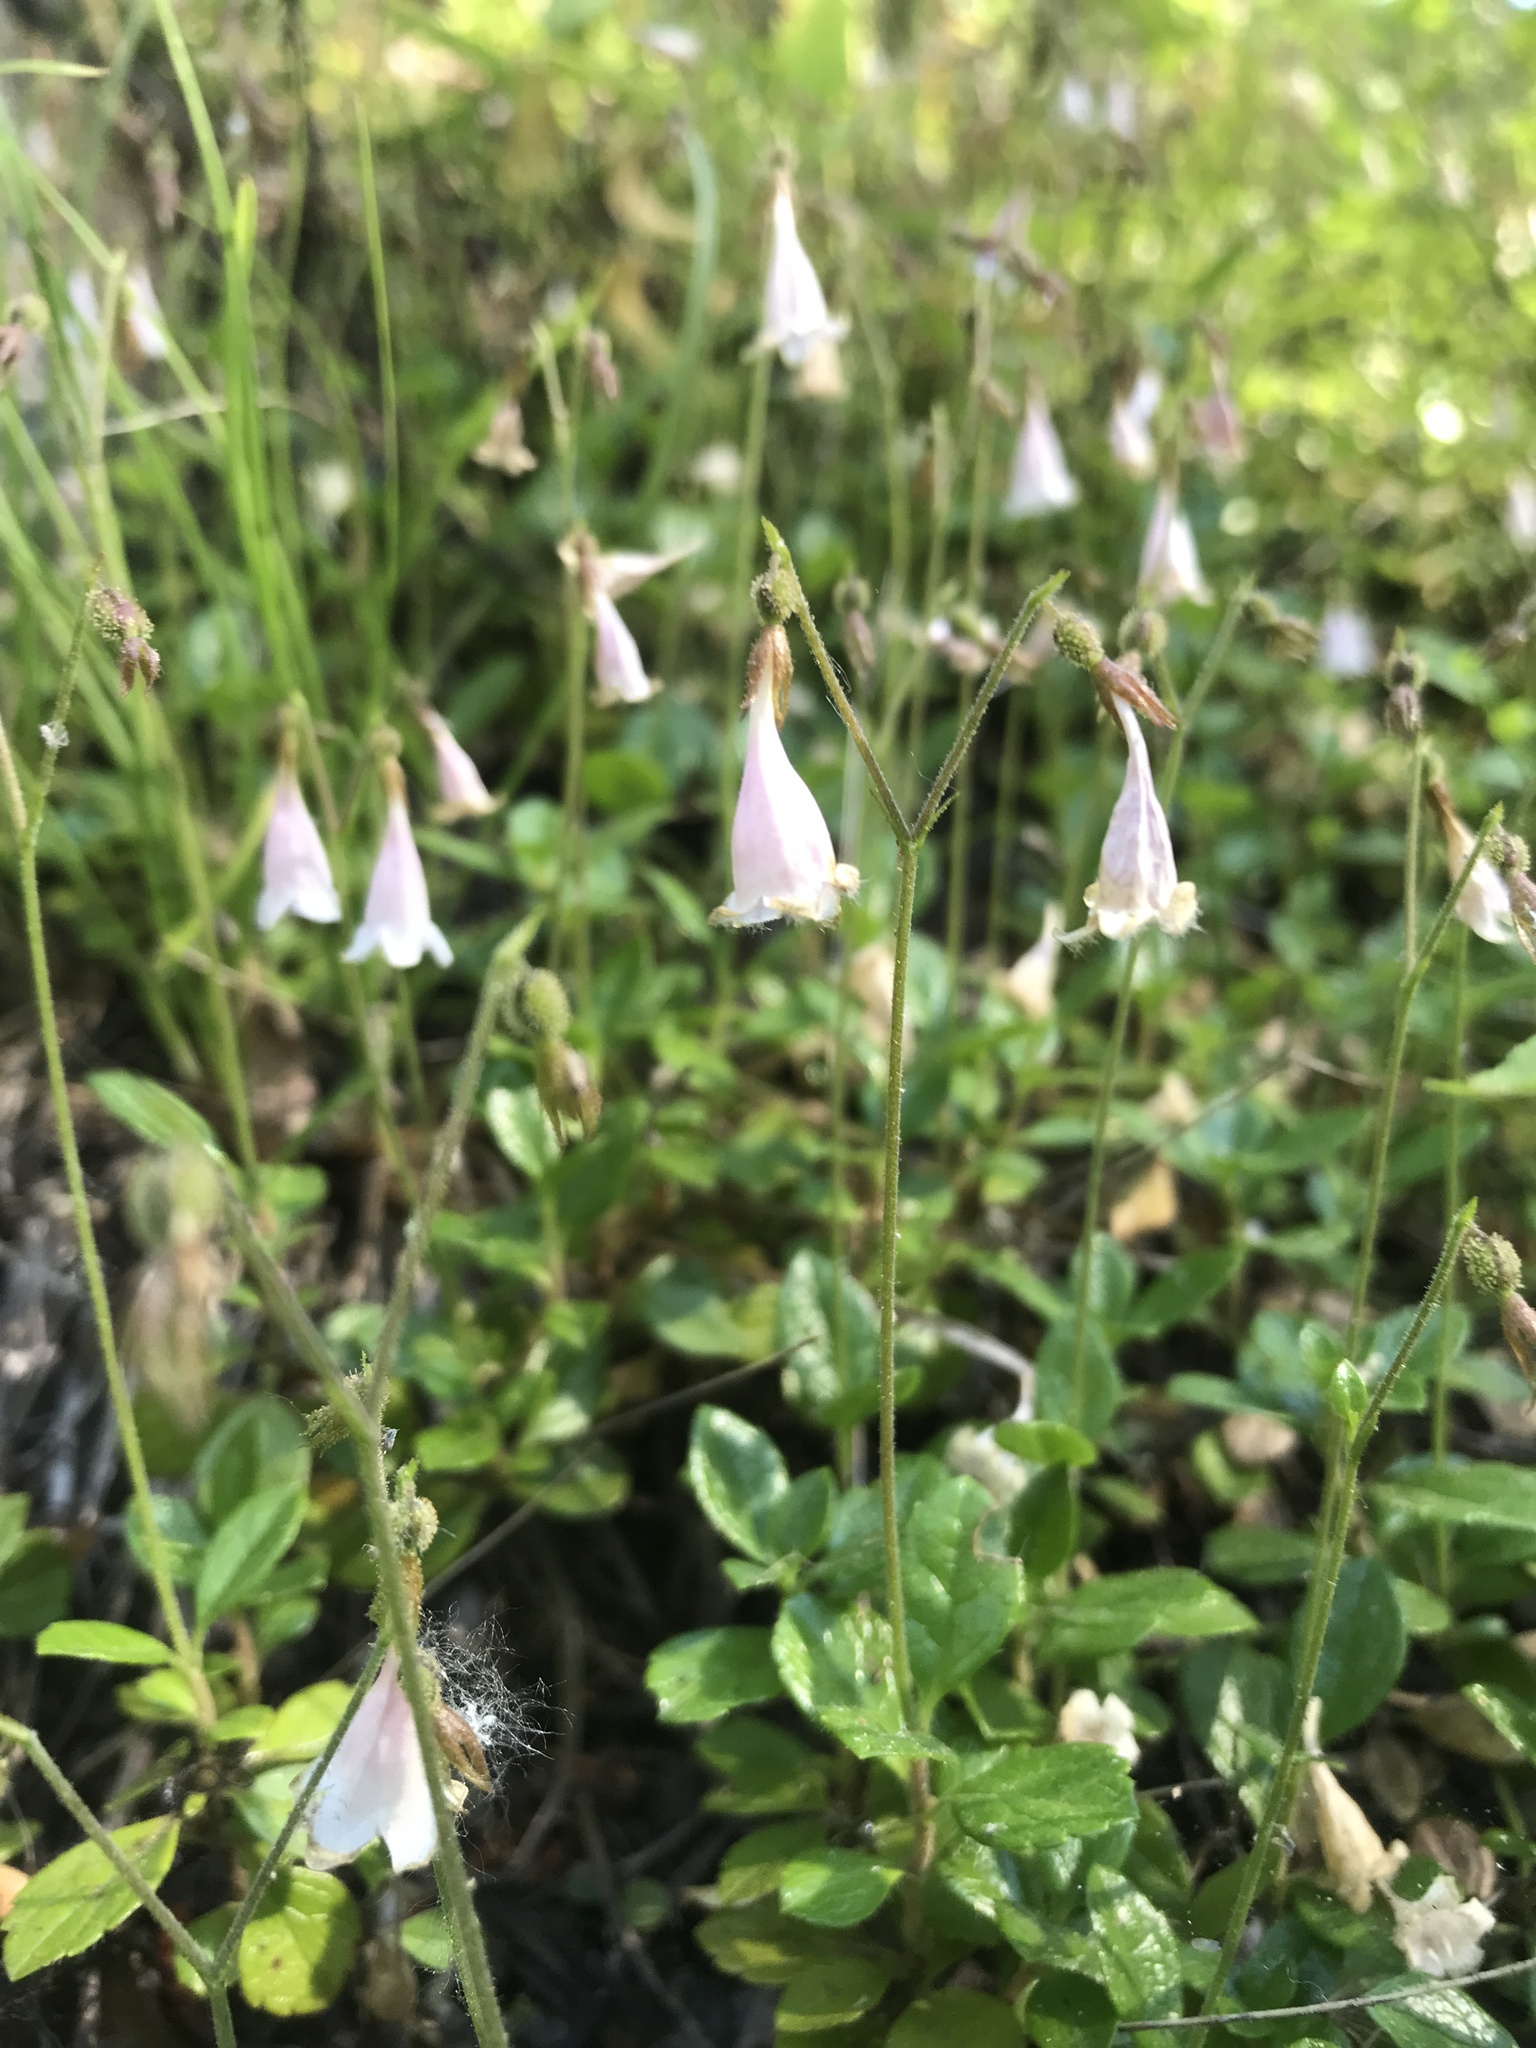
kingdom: Plantae
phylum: Tracheophyta
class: Magnoliopsida
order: Dipsacales
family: Caprifoliaceae
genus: Linnaea
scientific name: Linnaea borealis
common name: Twinflower
